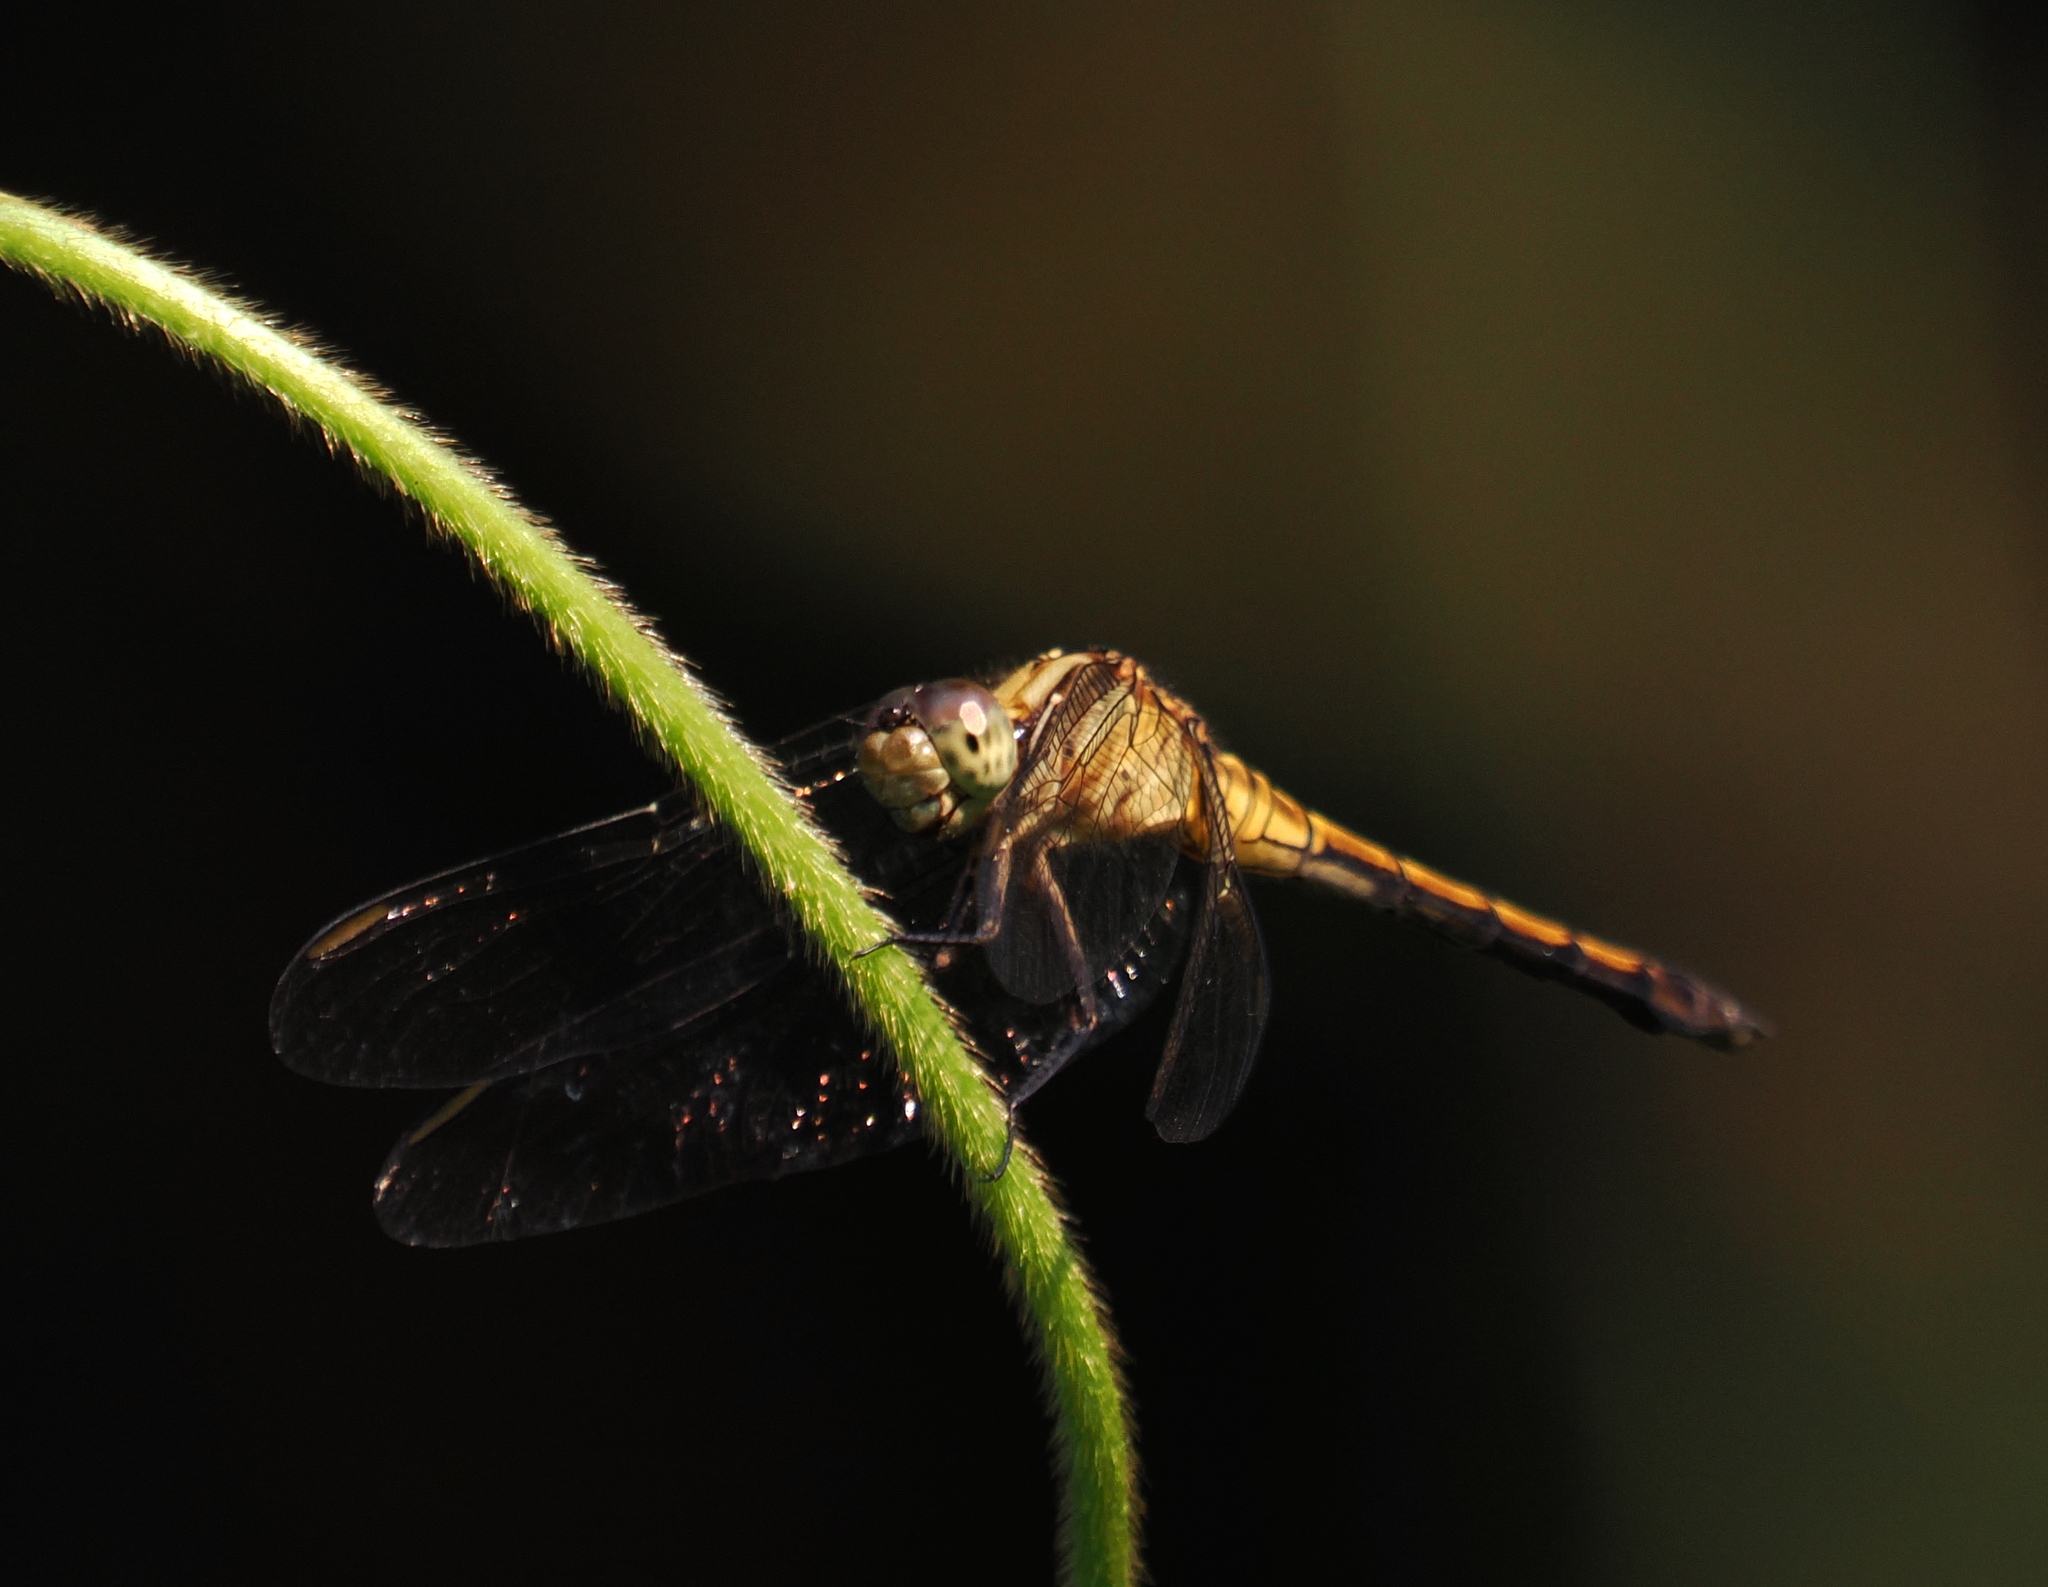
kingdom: Animalia
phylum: Arthropoda
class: Insecta
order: Odonata
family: Libellulidae
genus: Orthetrum
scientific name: Orthetrum luzonicum
